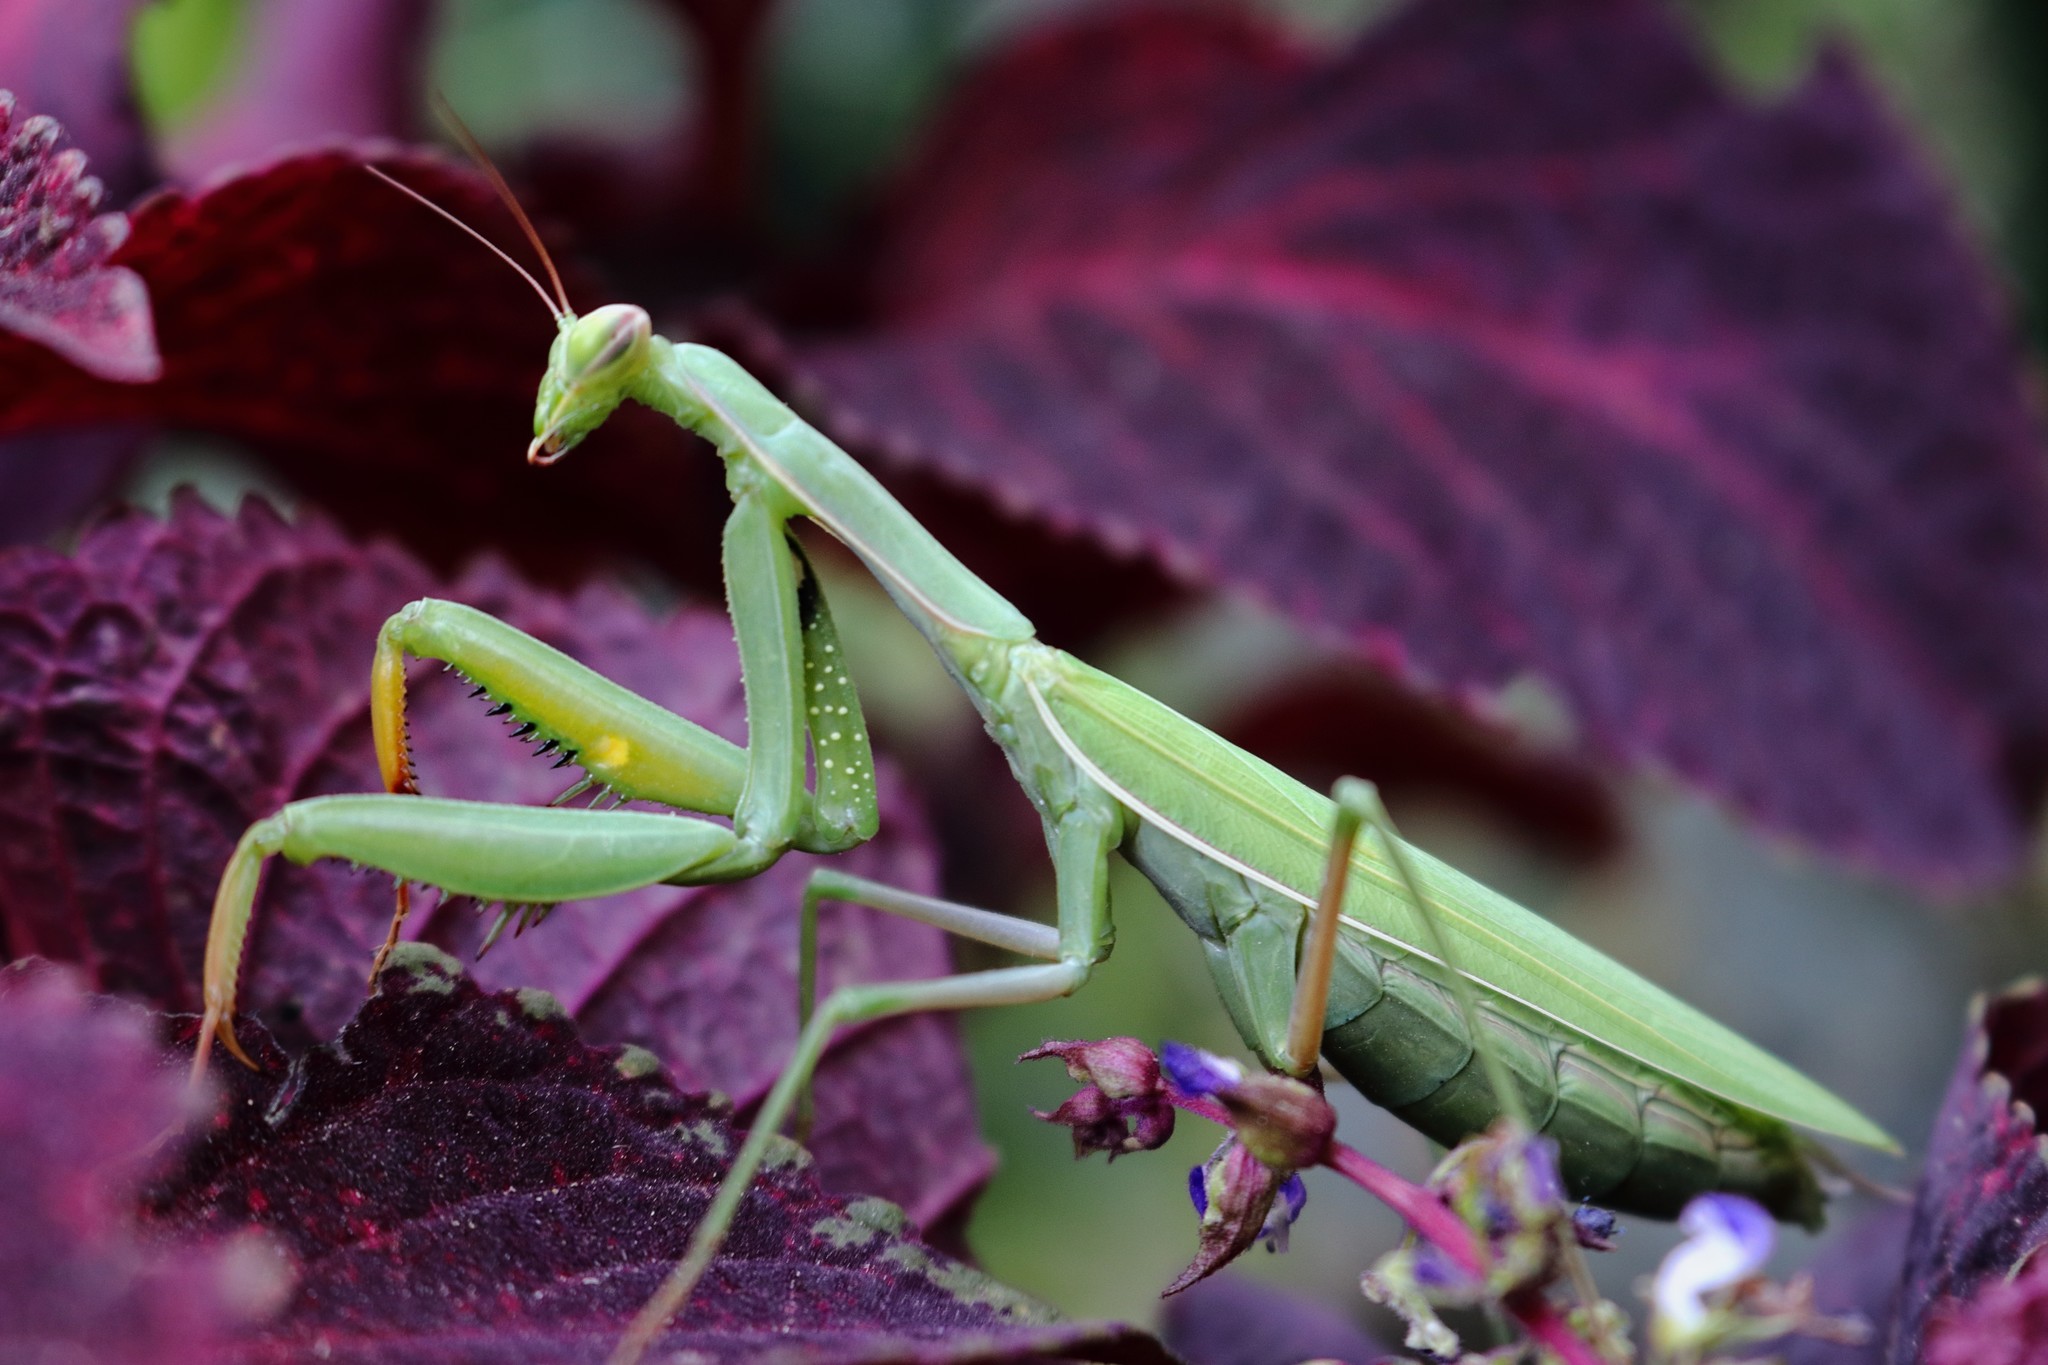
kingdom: Animalia
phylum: Arthropoda
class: Insecta
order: Mantodea
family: Mantidae
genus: Mantis
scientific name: Mantis religiosa
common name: Praying mantis
